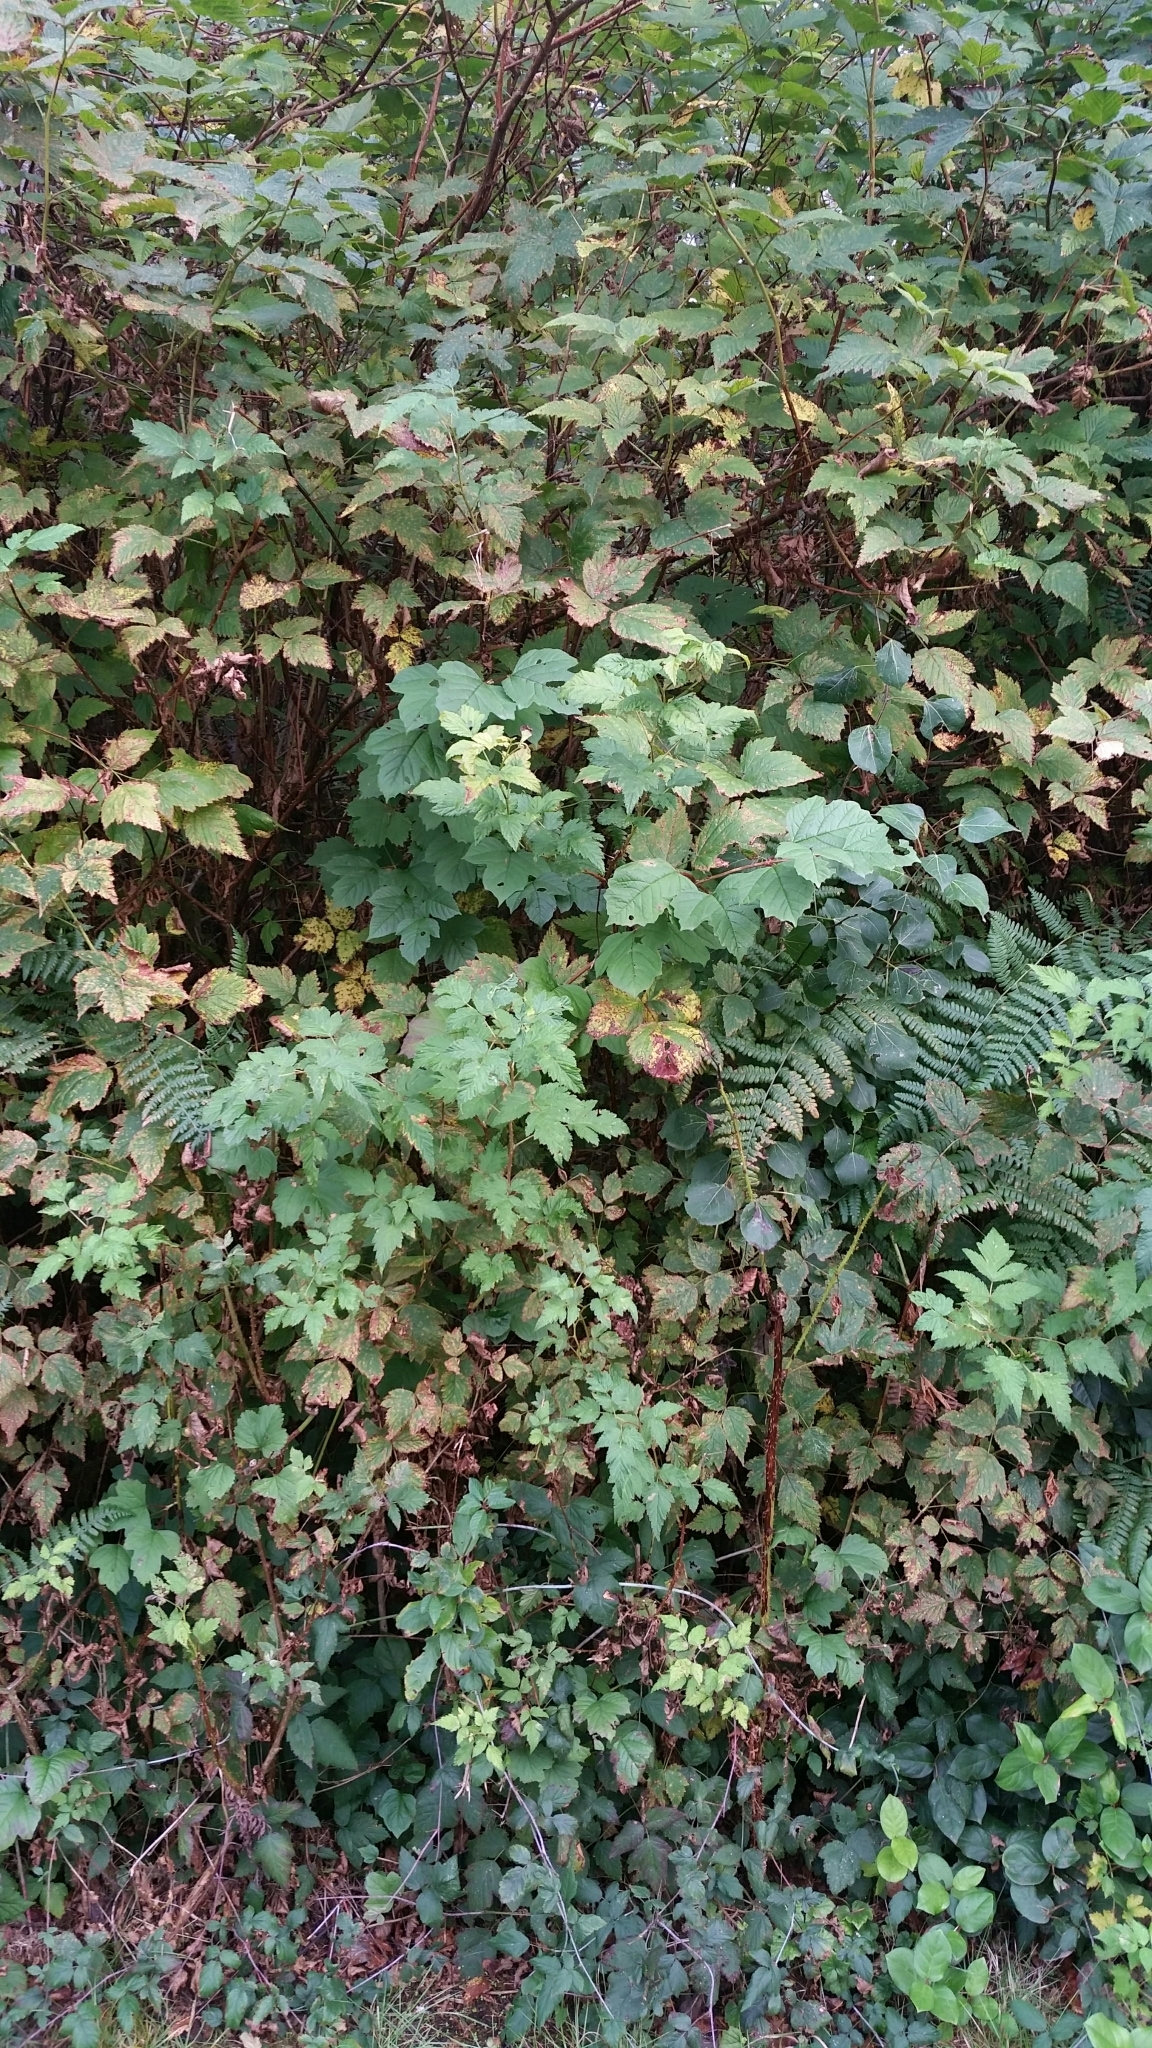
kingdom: Plantae
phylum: Tracheophyta
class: Magnoliopsida
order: Dipsacales
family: Viburnaceae
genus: Viburnum
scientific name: Viburnum opulus
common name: Guelder-rose
